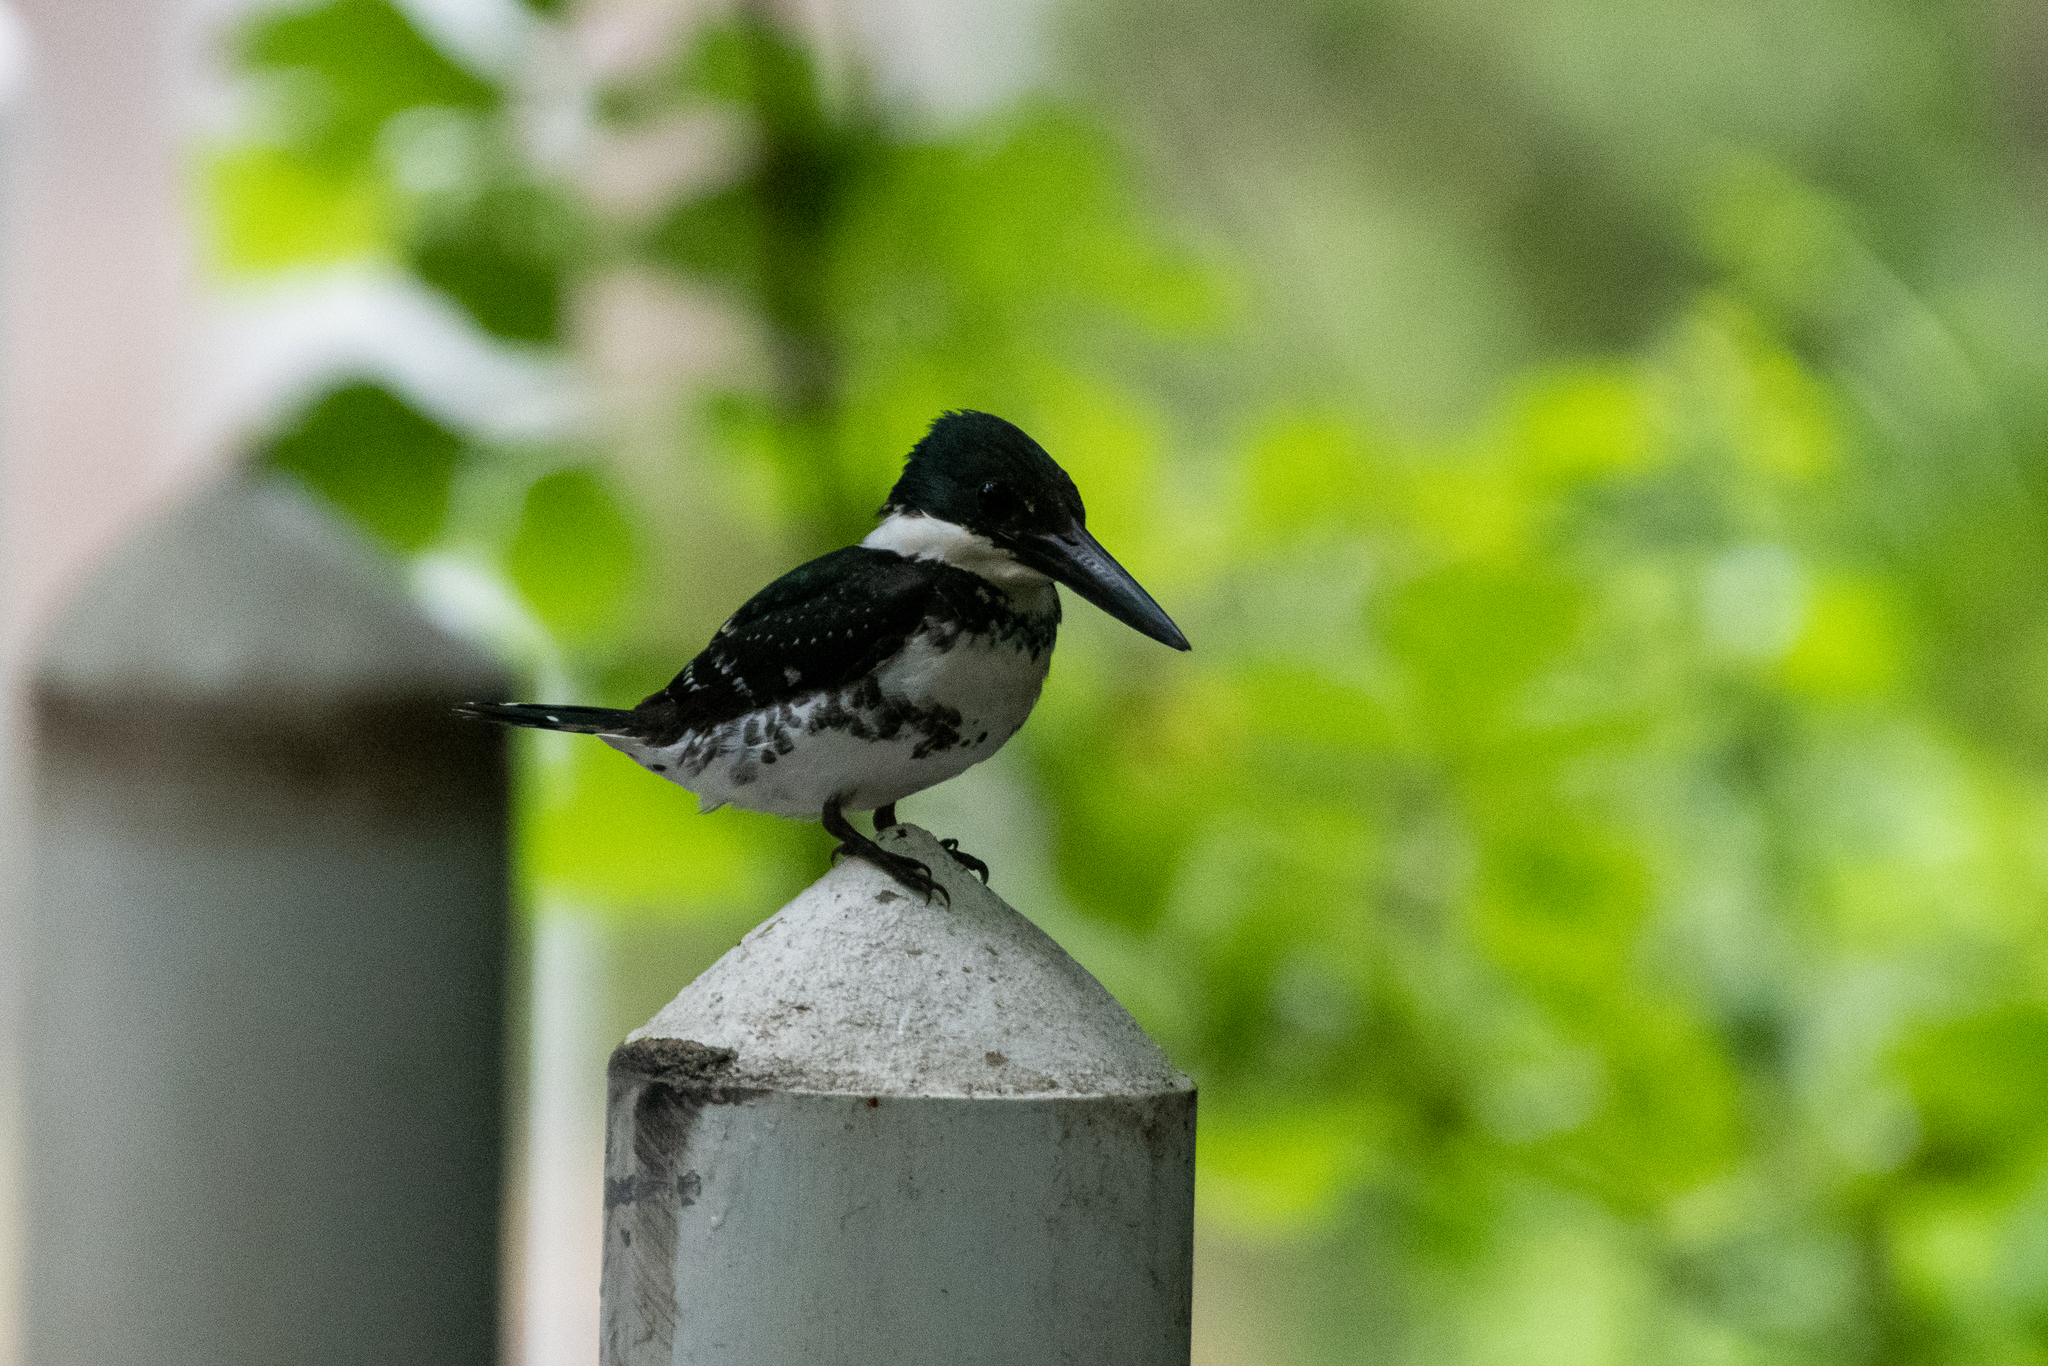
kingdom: Animalia
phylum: Chordata
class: Aves
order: Coraciiformes
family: Alcedinidae
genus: Chloroceryle
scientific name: Chloroceryle americana
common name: Green kingfisher
